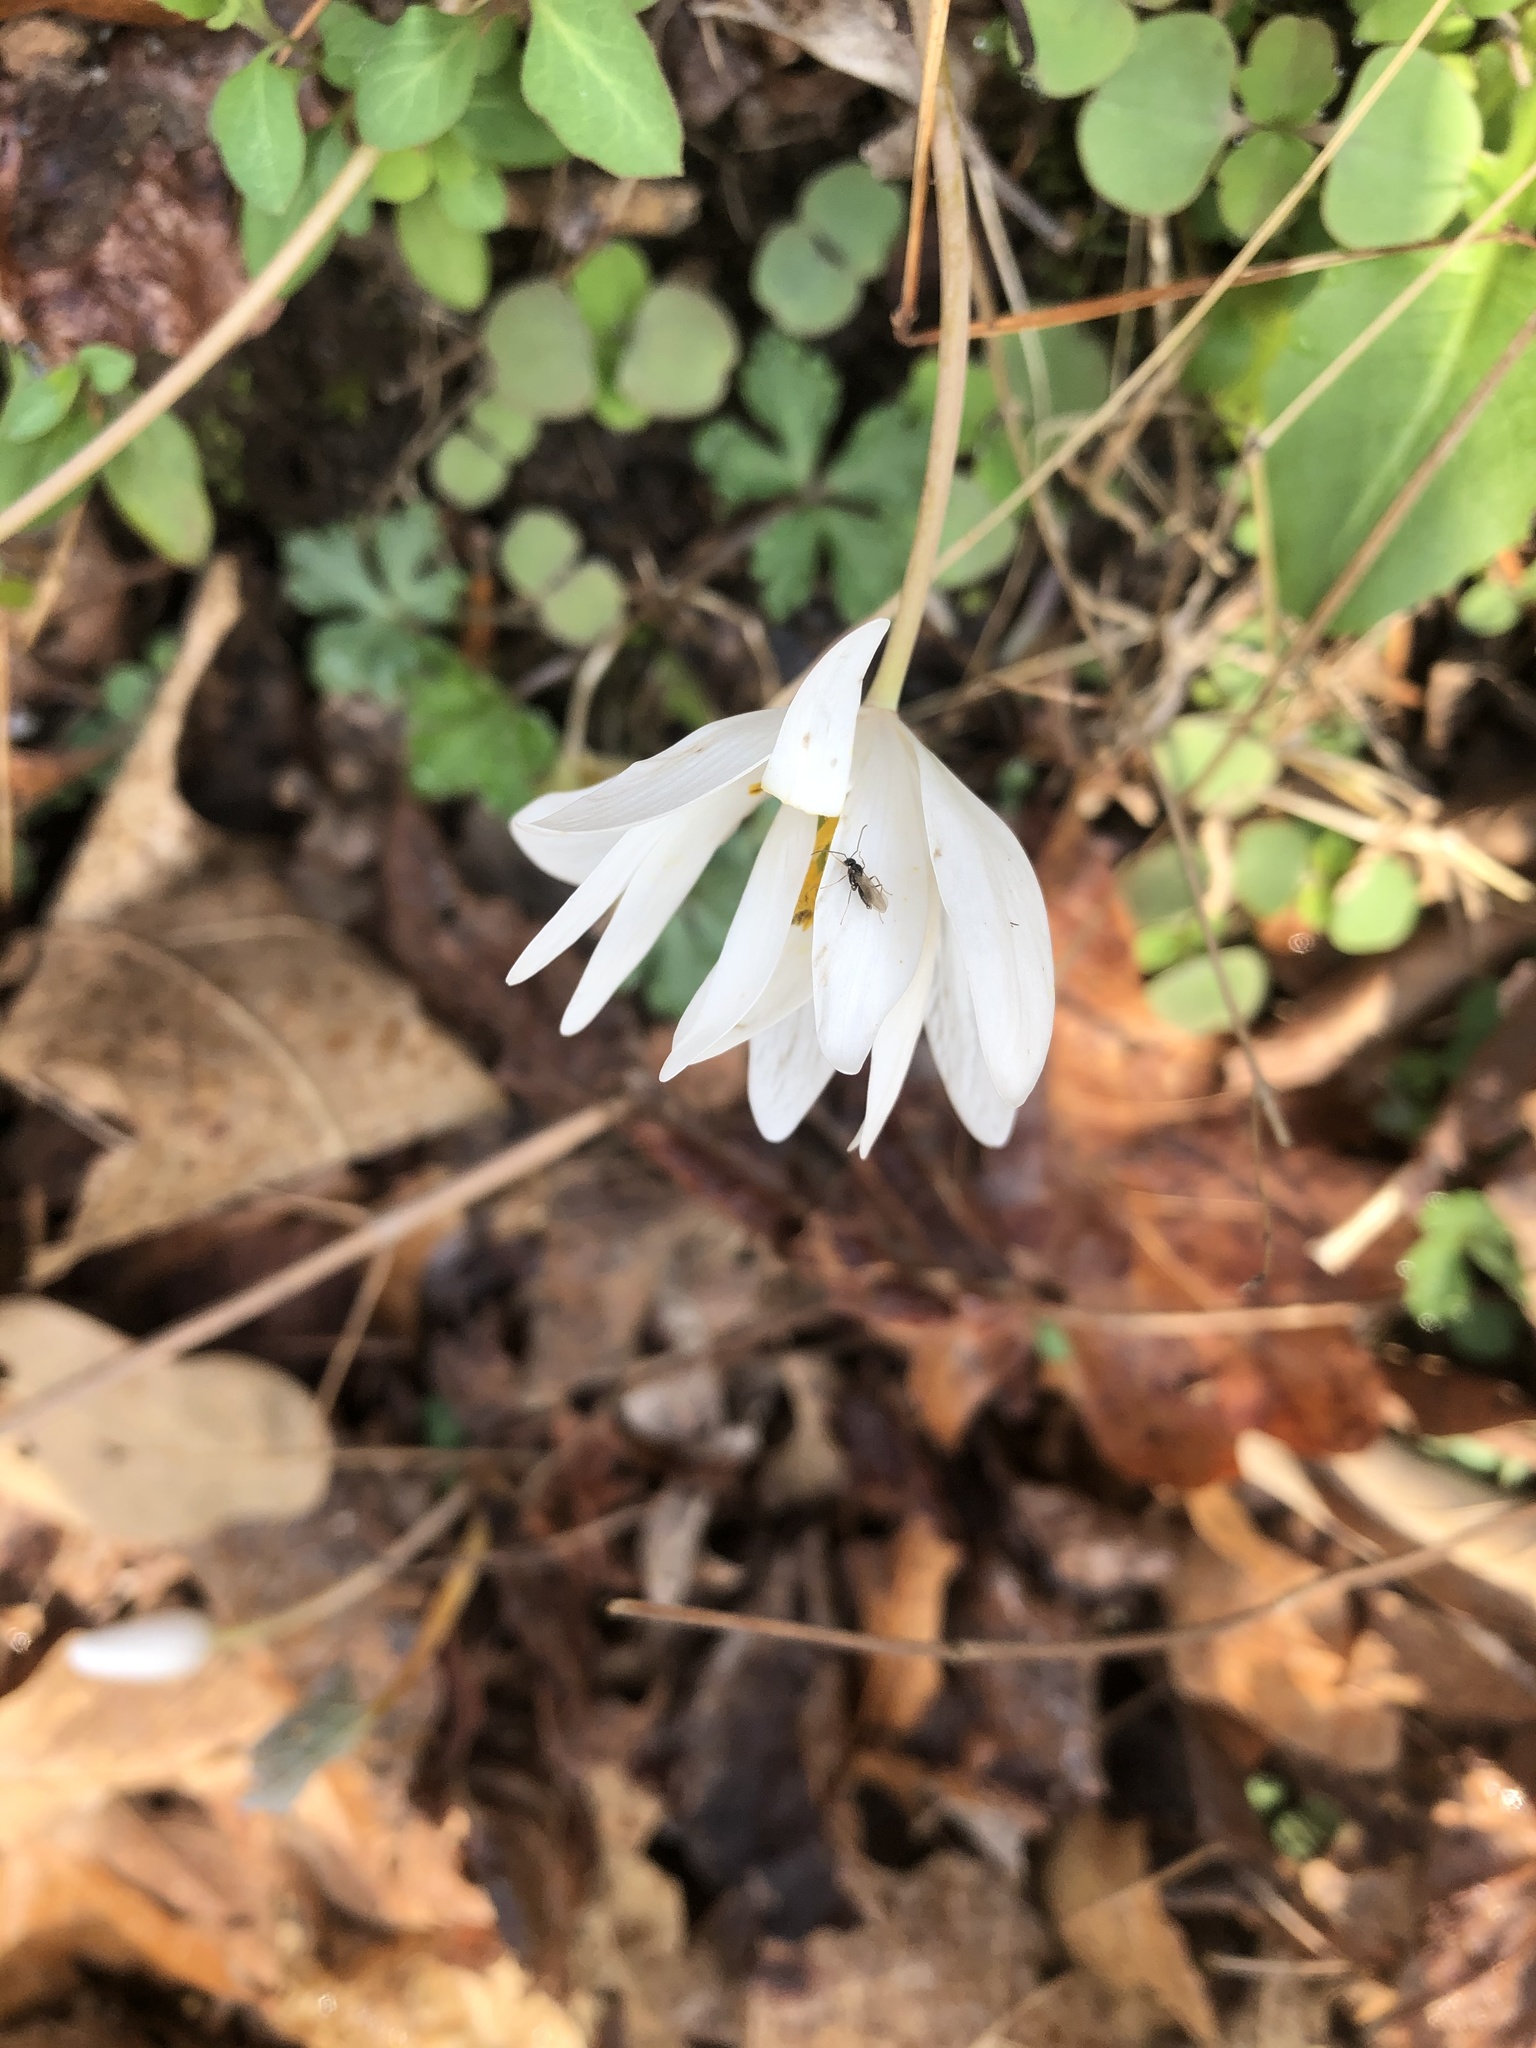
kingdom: Animalia
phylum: Arthropoda
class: Insecta
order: Hymenoptera
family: Formicidae
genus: Prenolepis
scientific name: Prenolepis imparis
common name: Small honey ant
